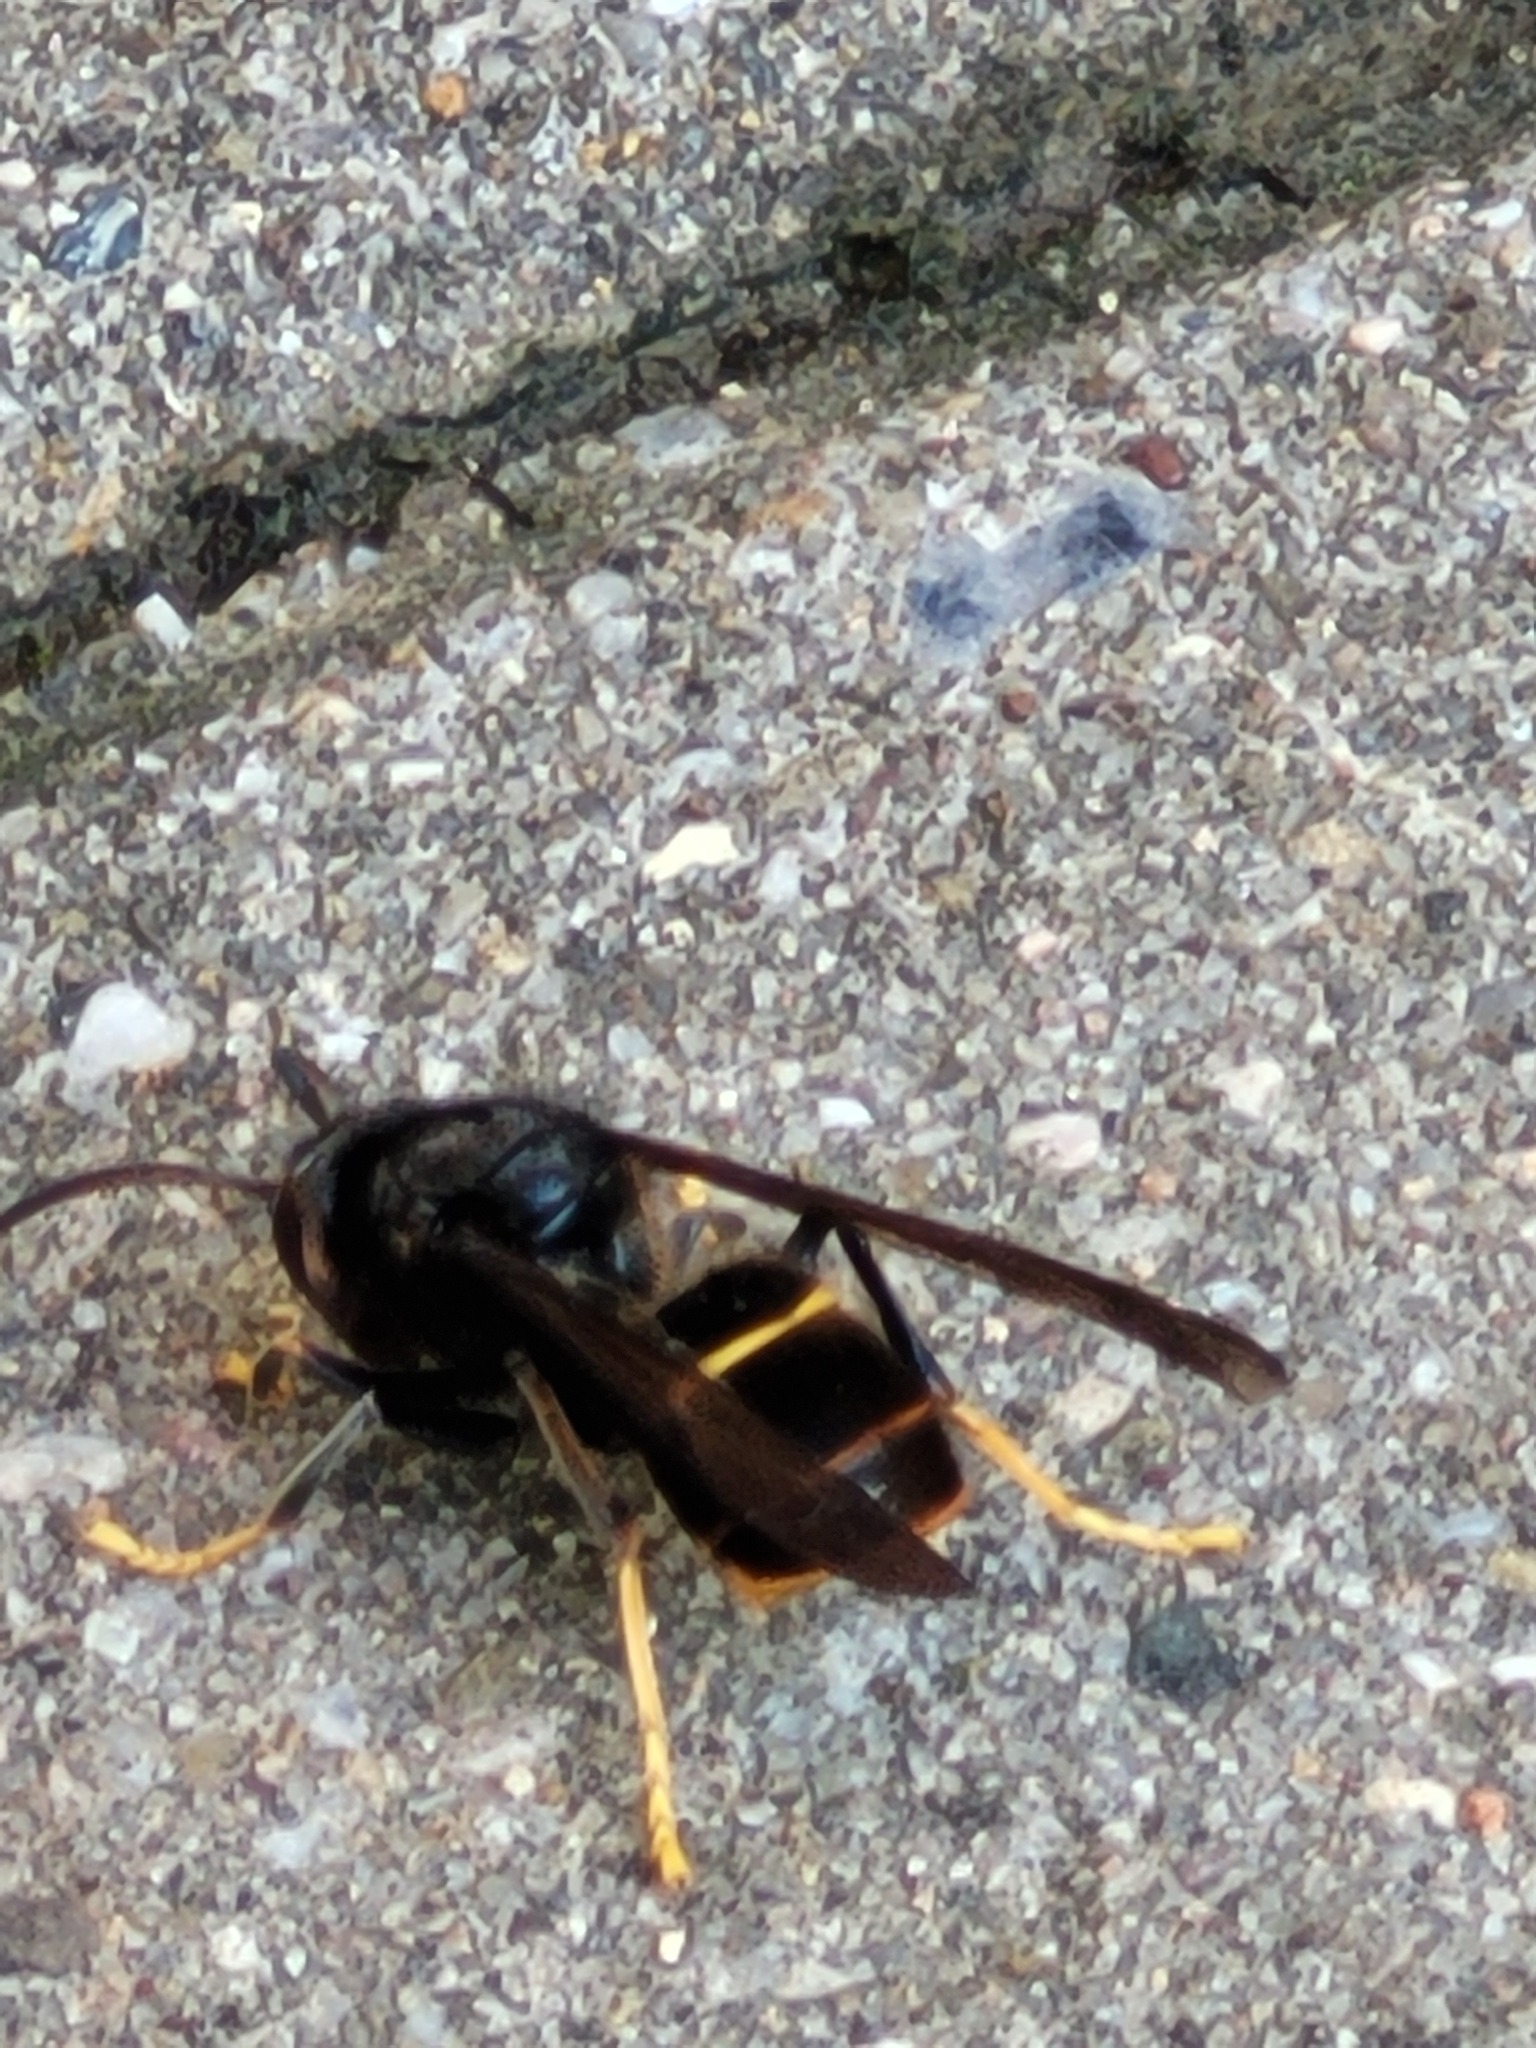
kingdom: Animalia
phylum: Arthropoda
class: Insecta
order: Hymenoptera
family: Vespidae
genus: Vespa
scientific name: Vespa velutina
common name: Asian hornet
